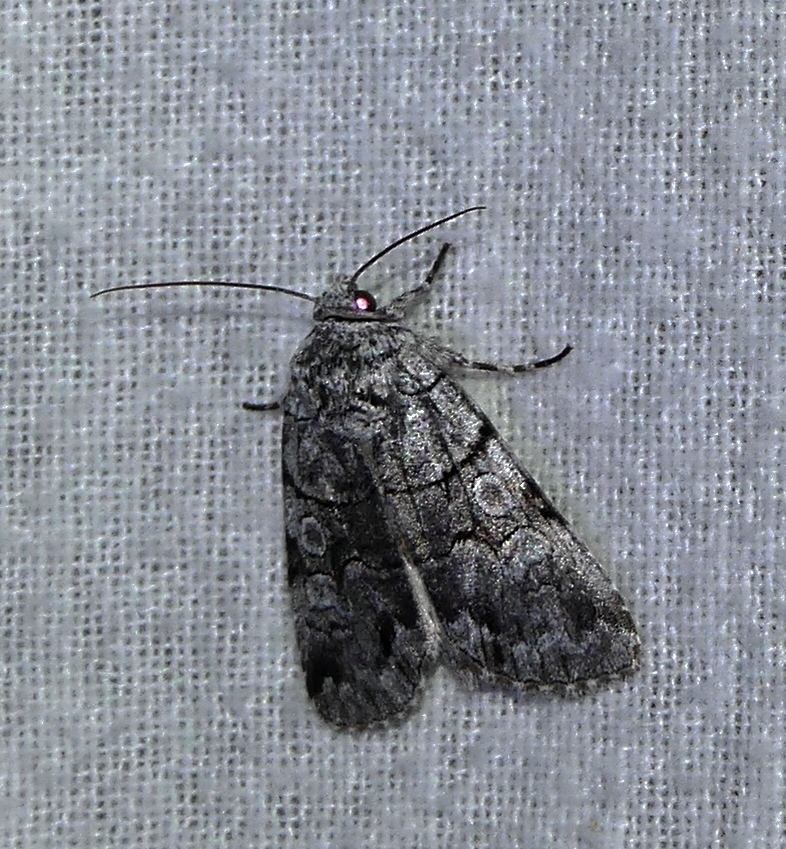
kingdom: Animalia
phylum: Arthropoda
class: Insecta
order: Lepidoptera
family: Noctuidae
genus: Sympistis
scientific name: Sympistis chionanthi
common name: Fringe-tree sallow
